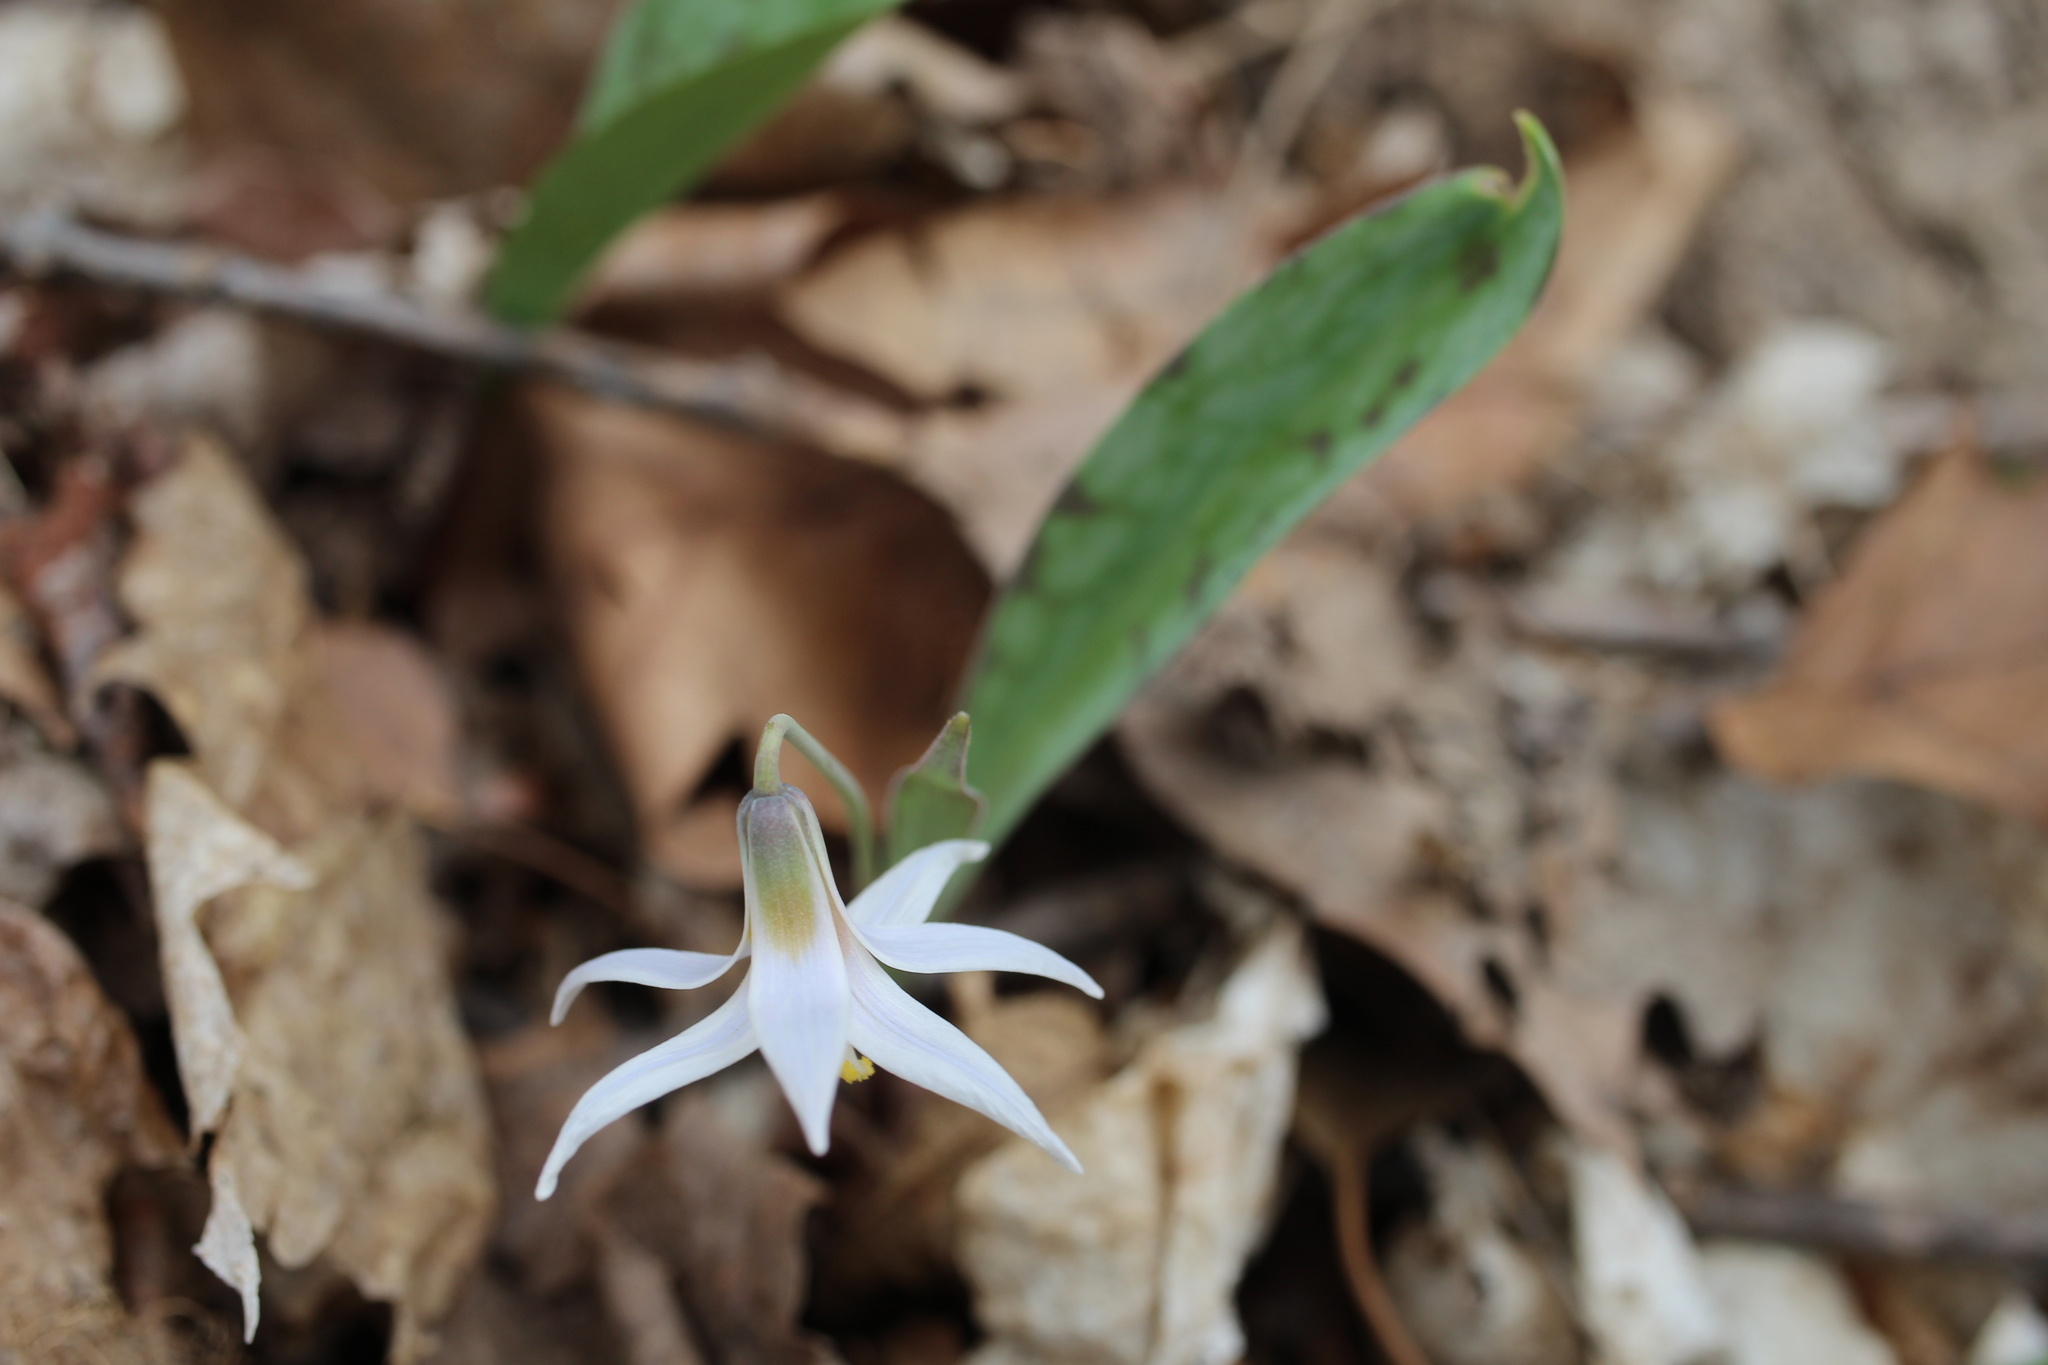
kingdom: Plantae
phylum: Tracheophyta
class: Liliopsida
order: Liliales
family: Liliaceae
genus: Erythronium
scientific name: Erythronium albidum
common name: White trout-lily
